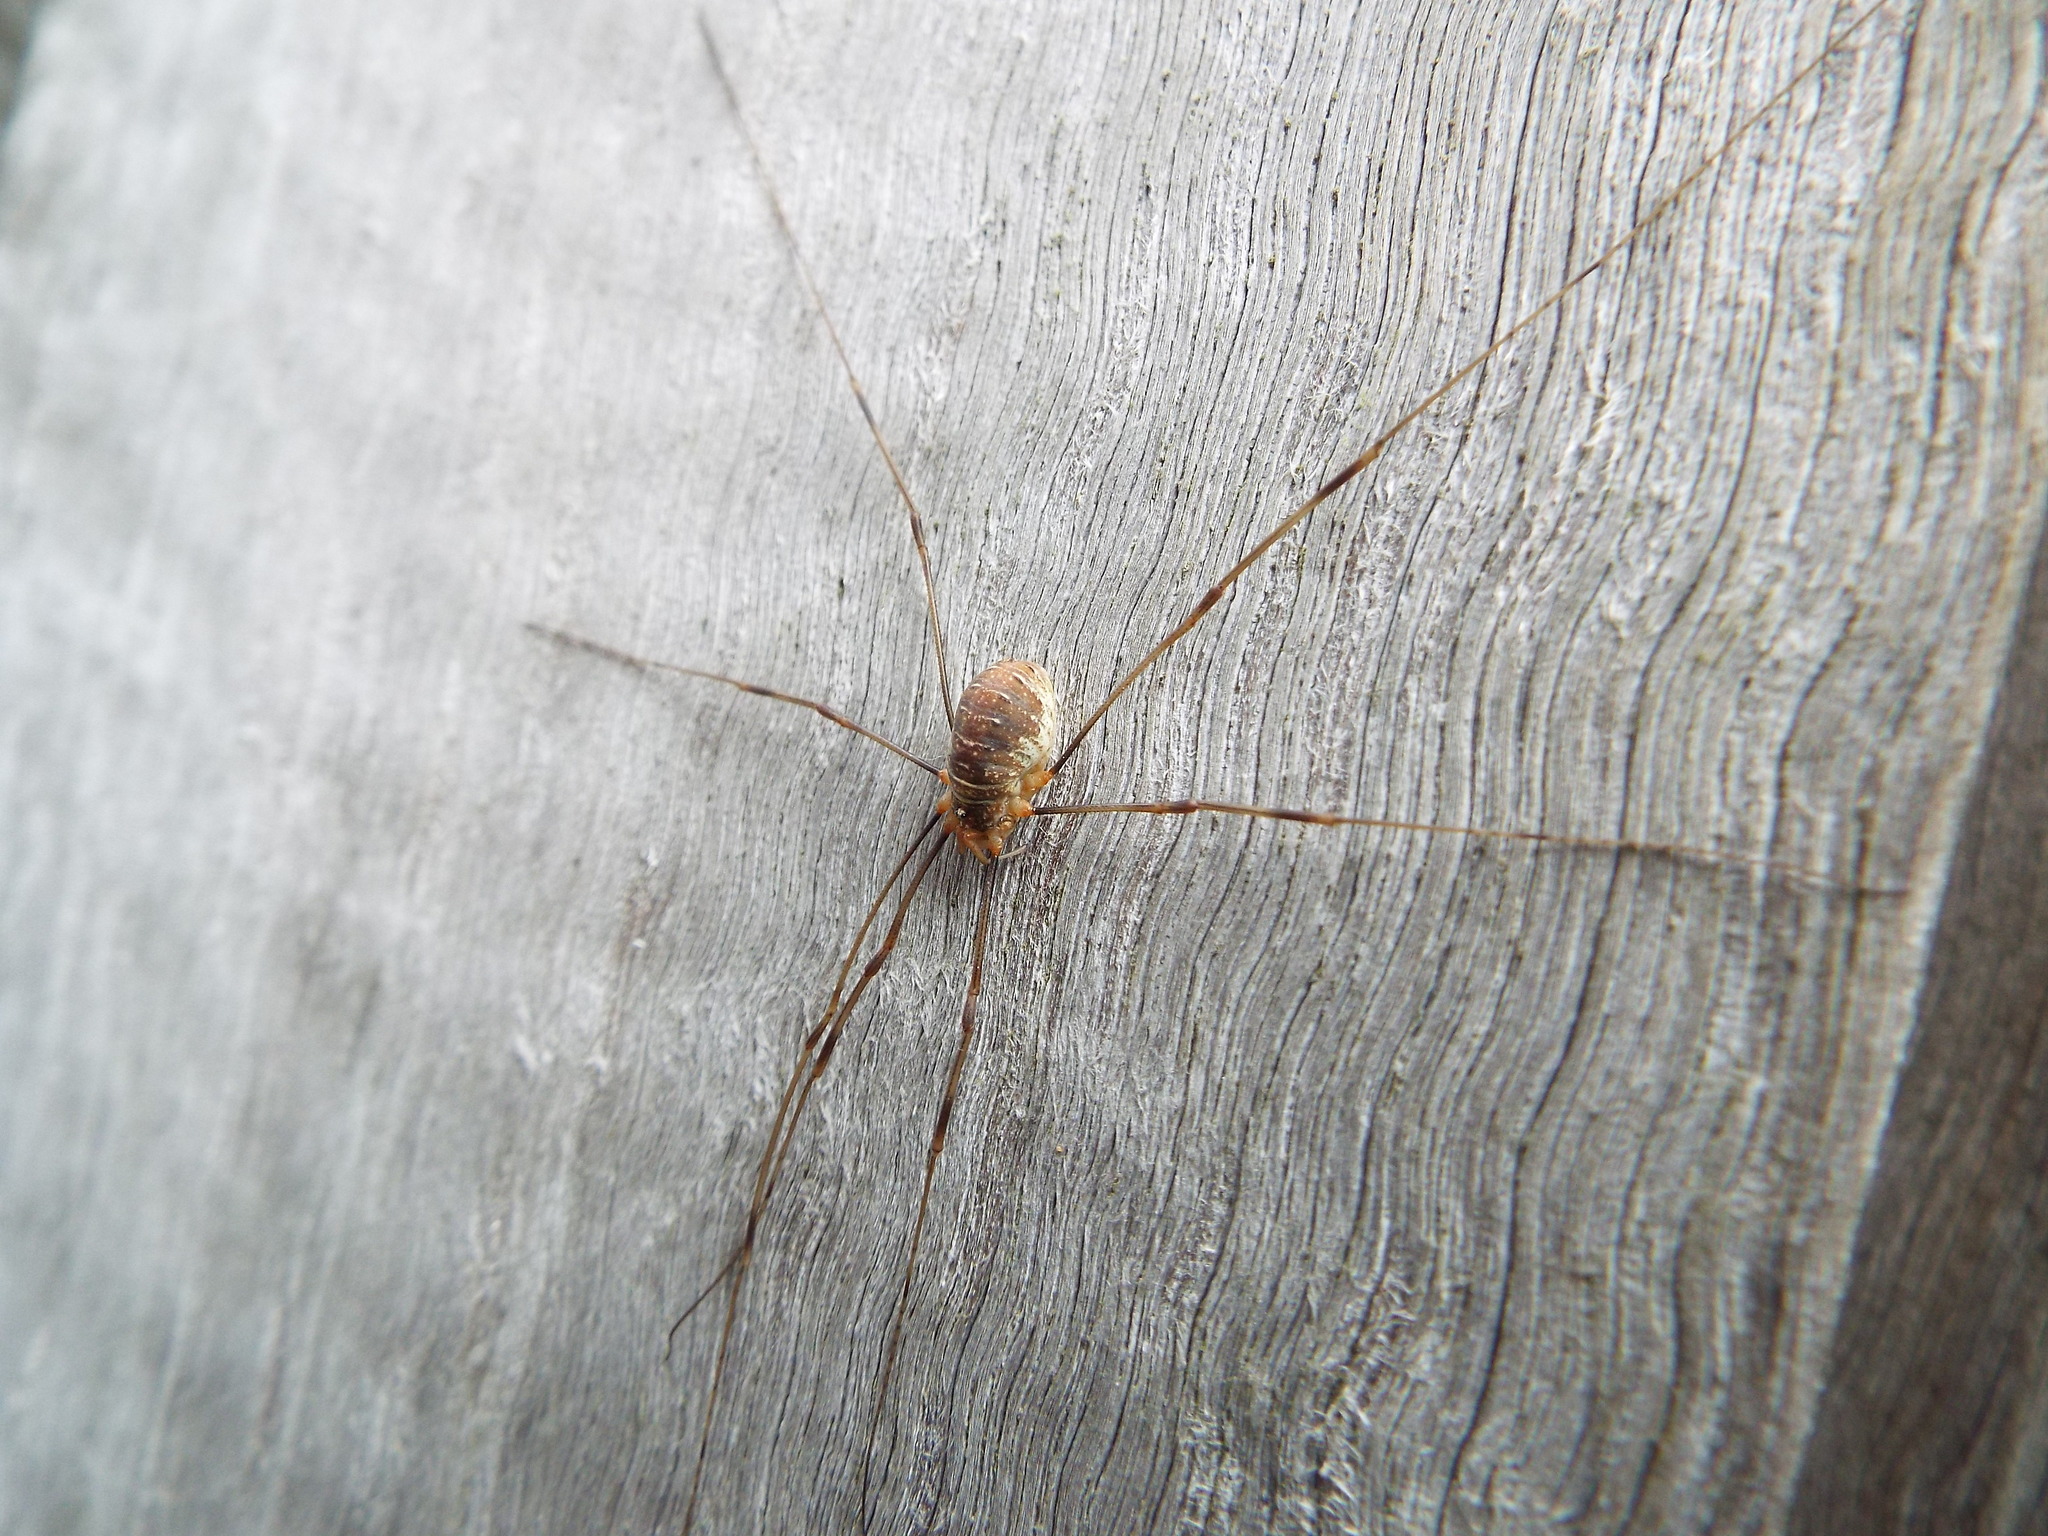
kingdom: Animalia
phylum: Arthropoda
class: Arachnida
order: Opiliones
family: Phalangiidae
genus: Opilio
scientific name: Opilio canestrinii
